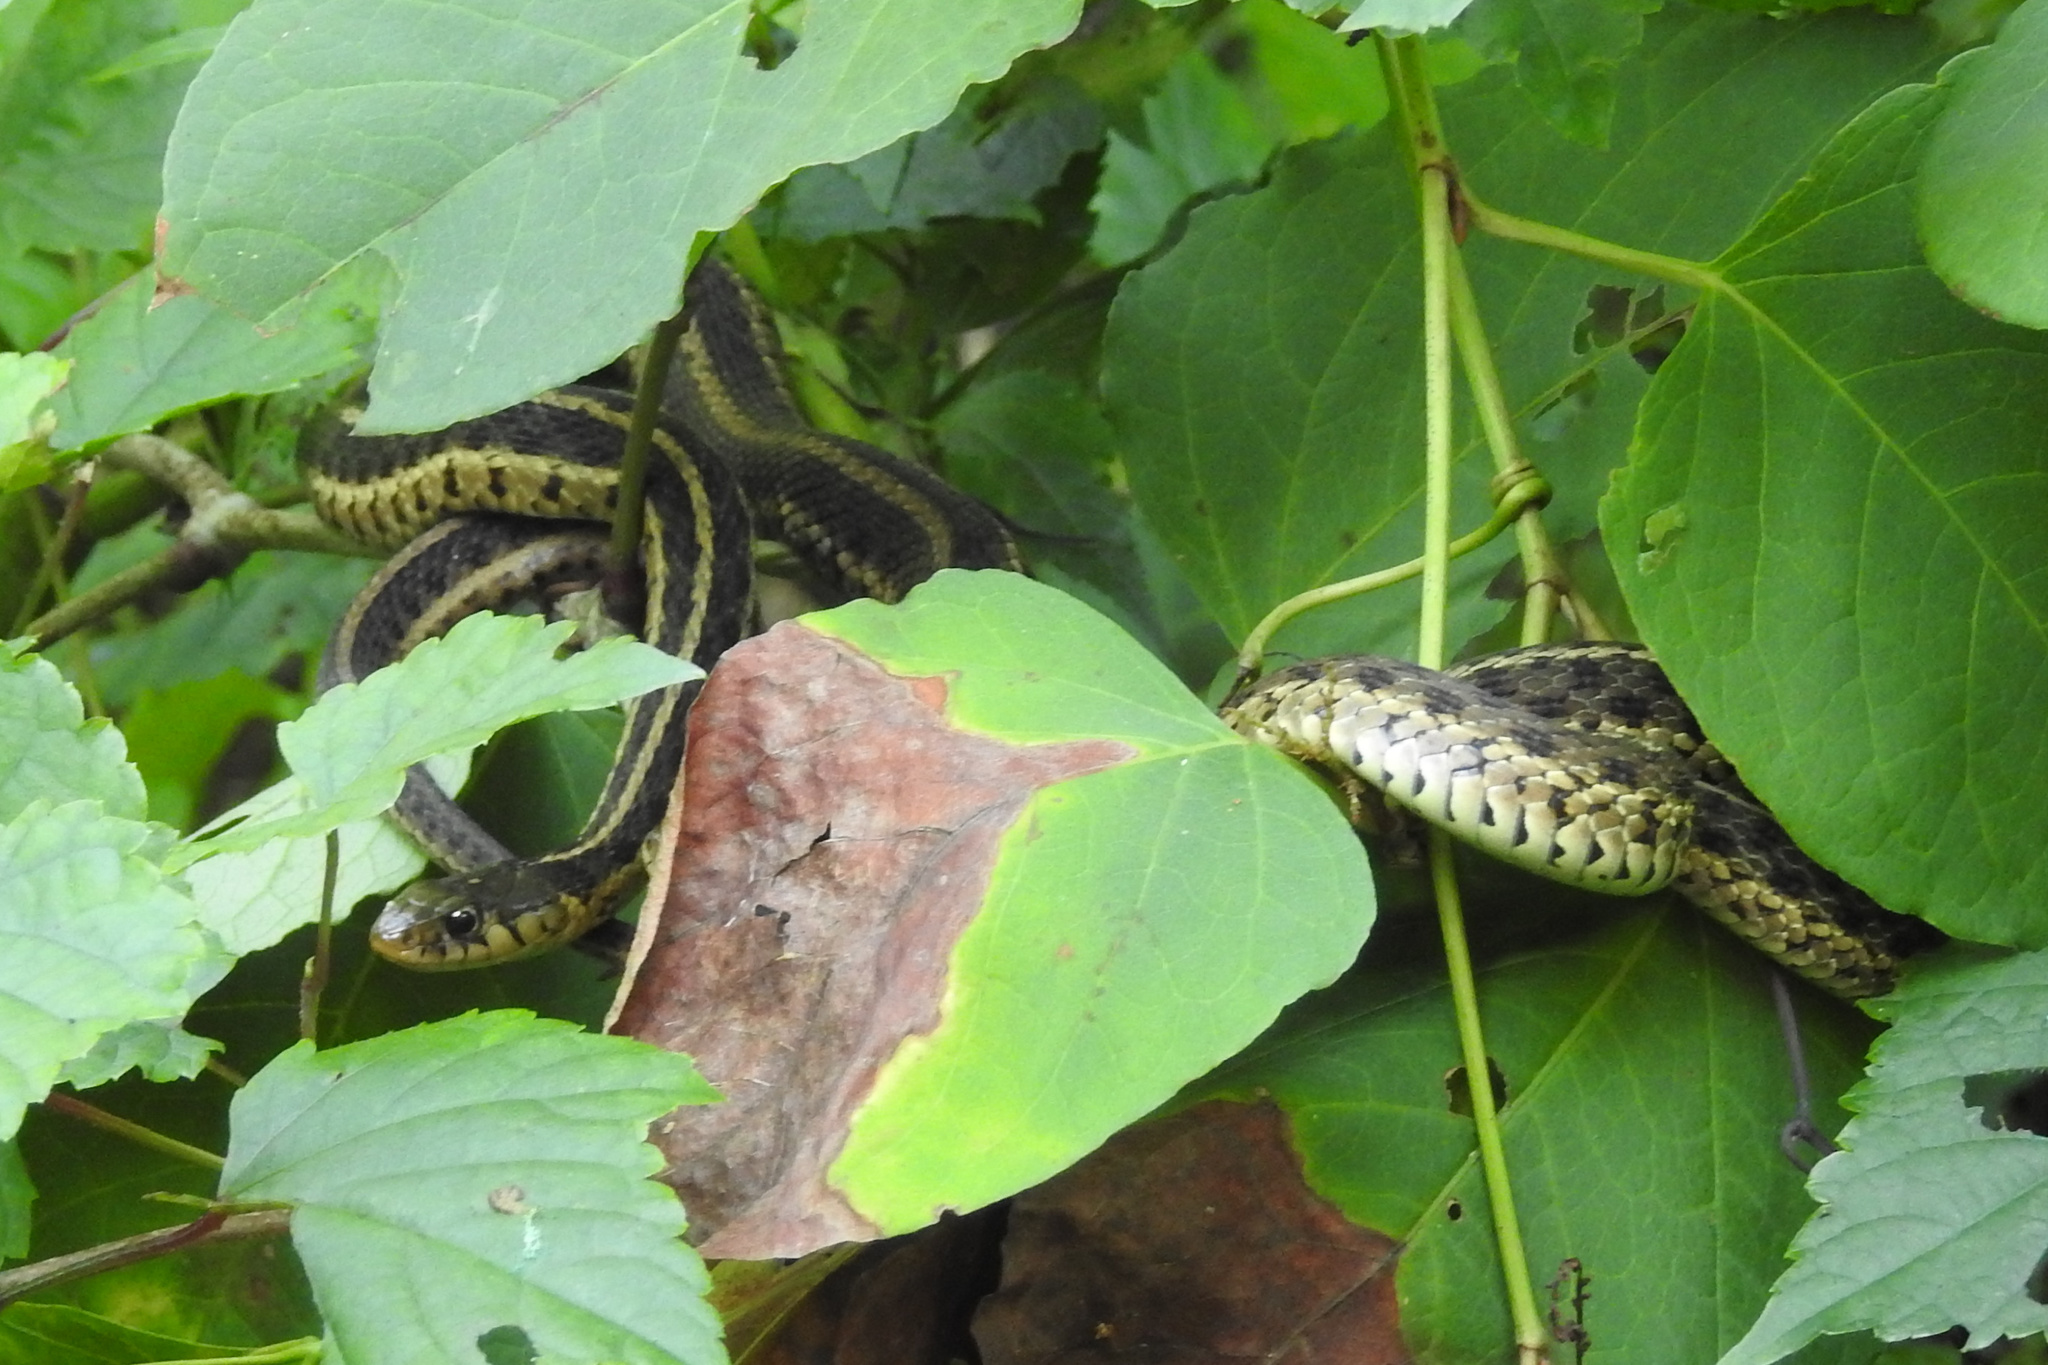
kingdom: Animalia
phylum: Chordata
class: Squamata
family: Colubridae
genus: Thamnophis
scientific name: Thamnophis sirtalis
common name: Common garter snake
